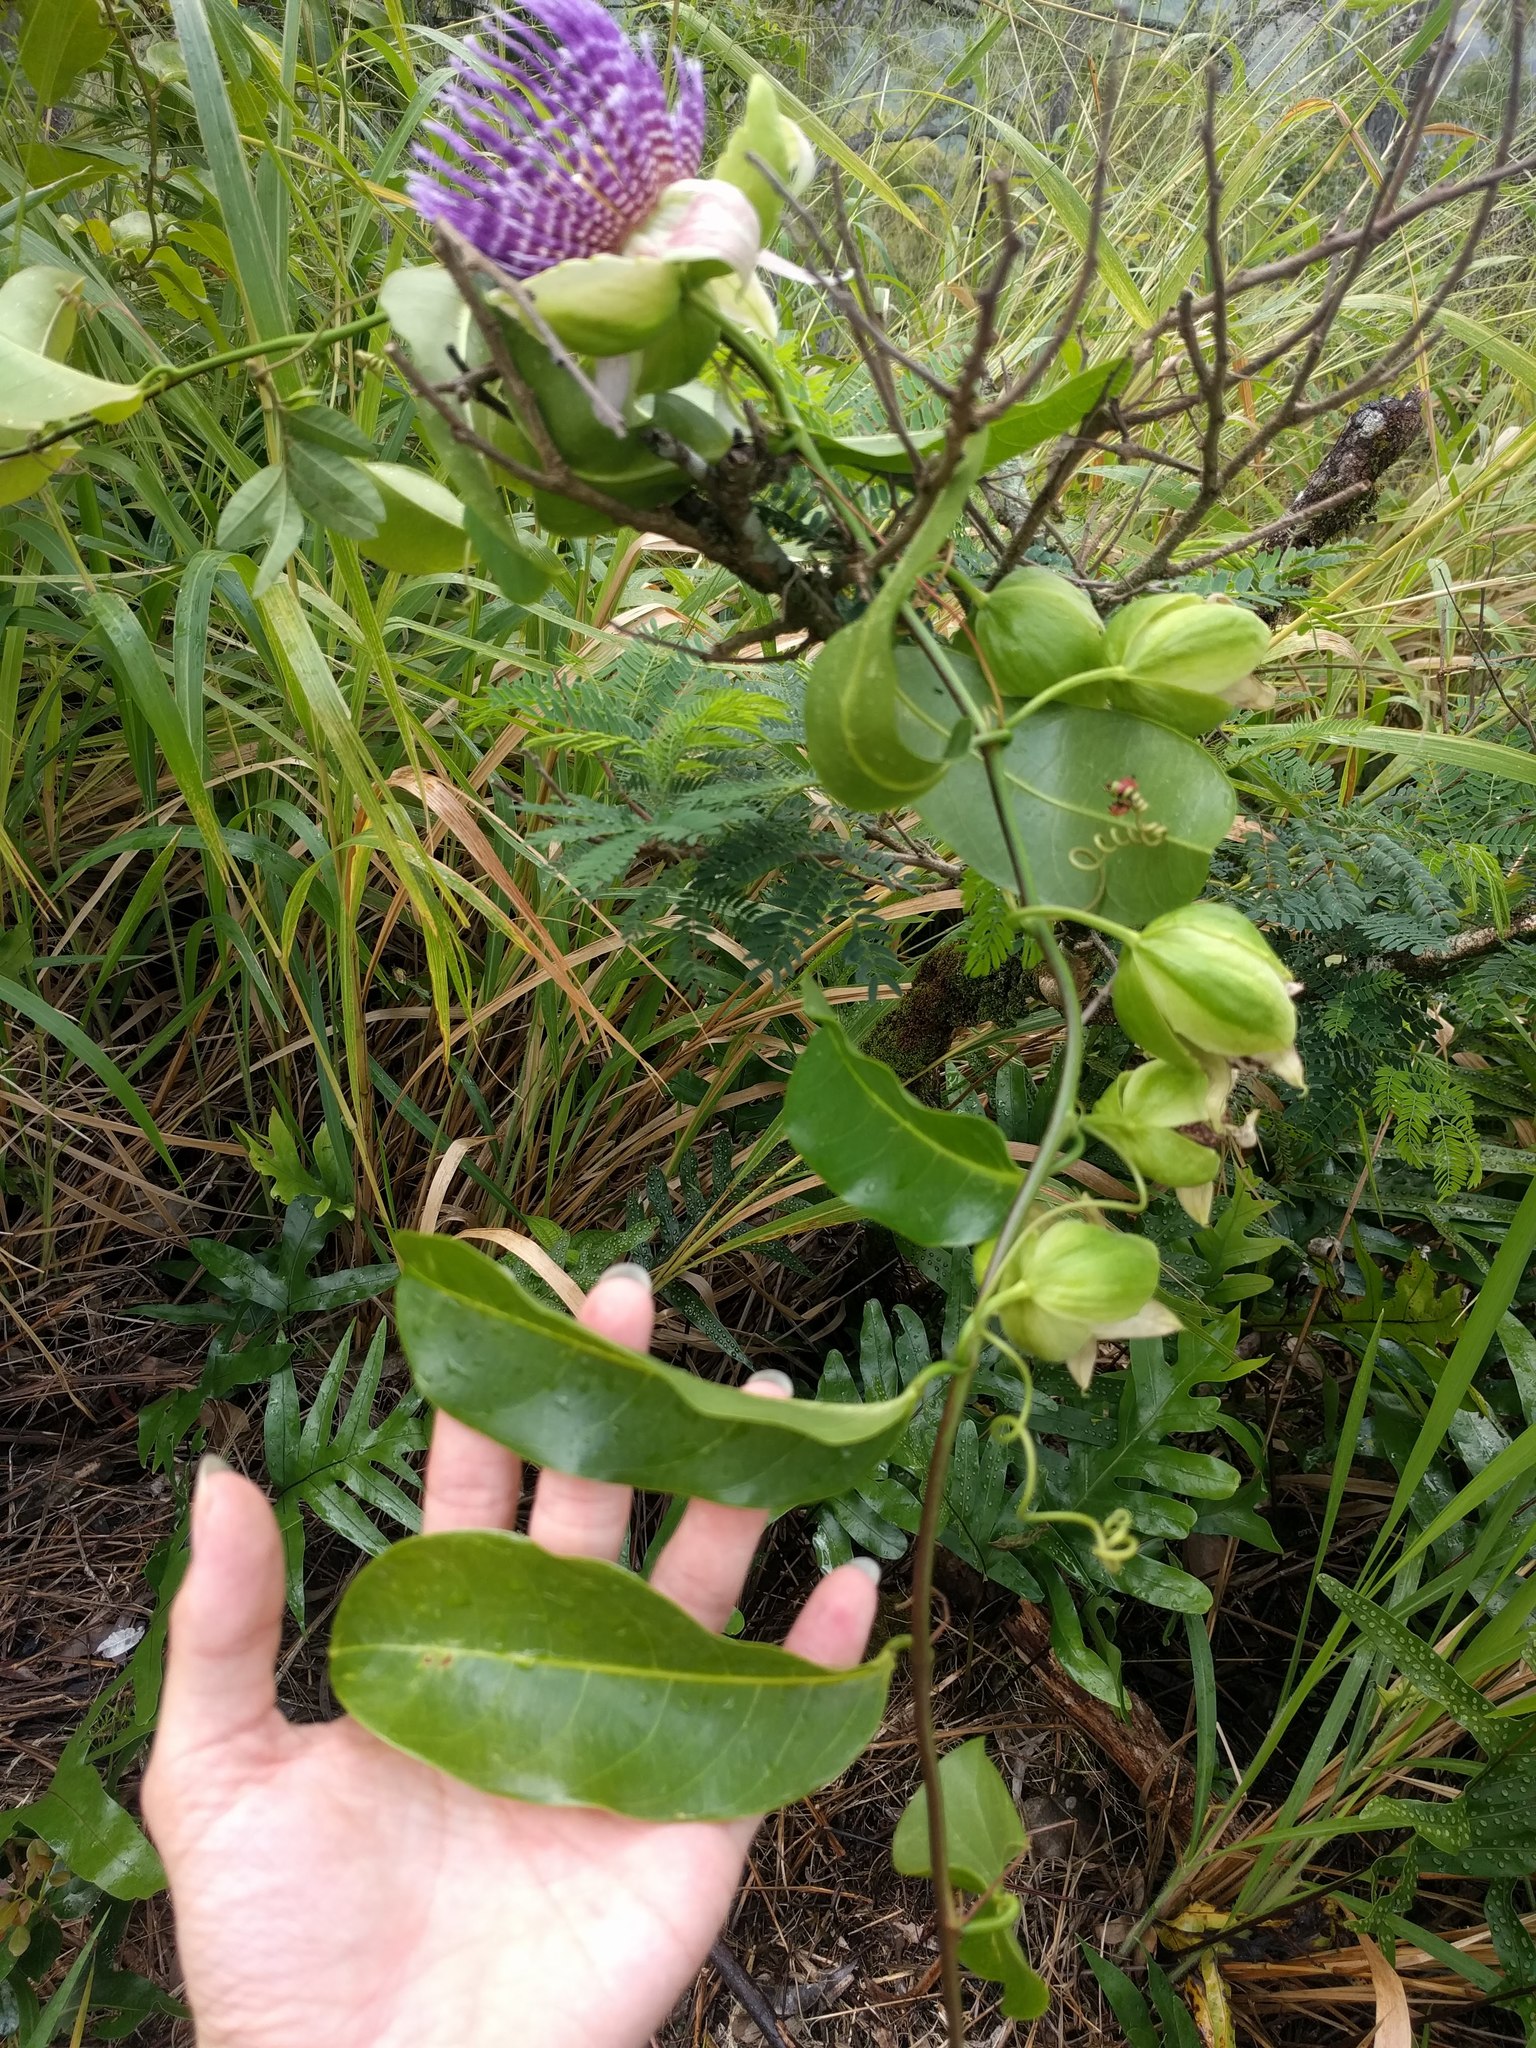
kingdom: Plantae
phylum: Tracheophyta
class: Magnoliopsida
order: Malpighiales
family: Passifloraceae
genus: Passiflora
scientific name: Passiflora laurifolia
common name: Bell apple
